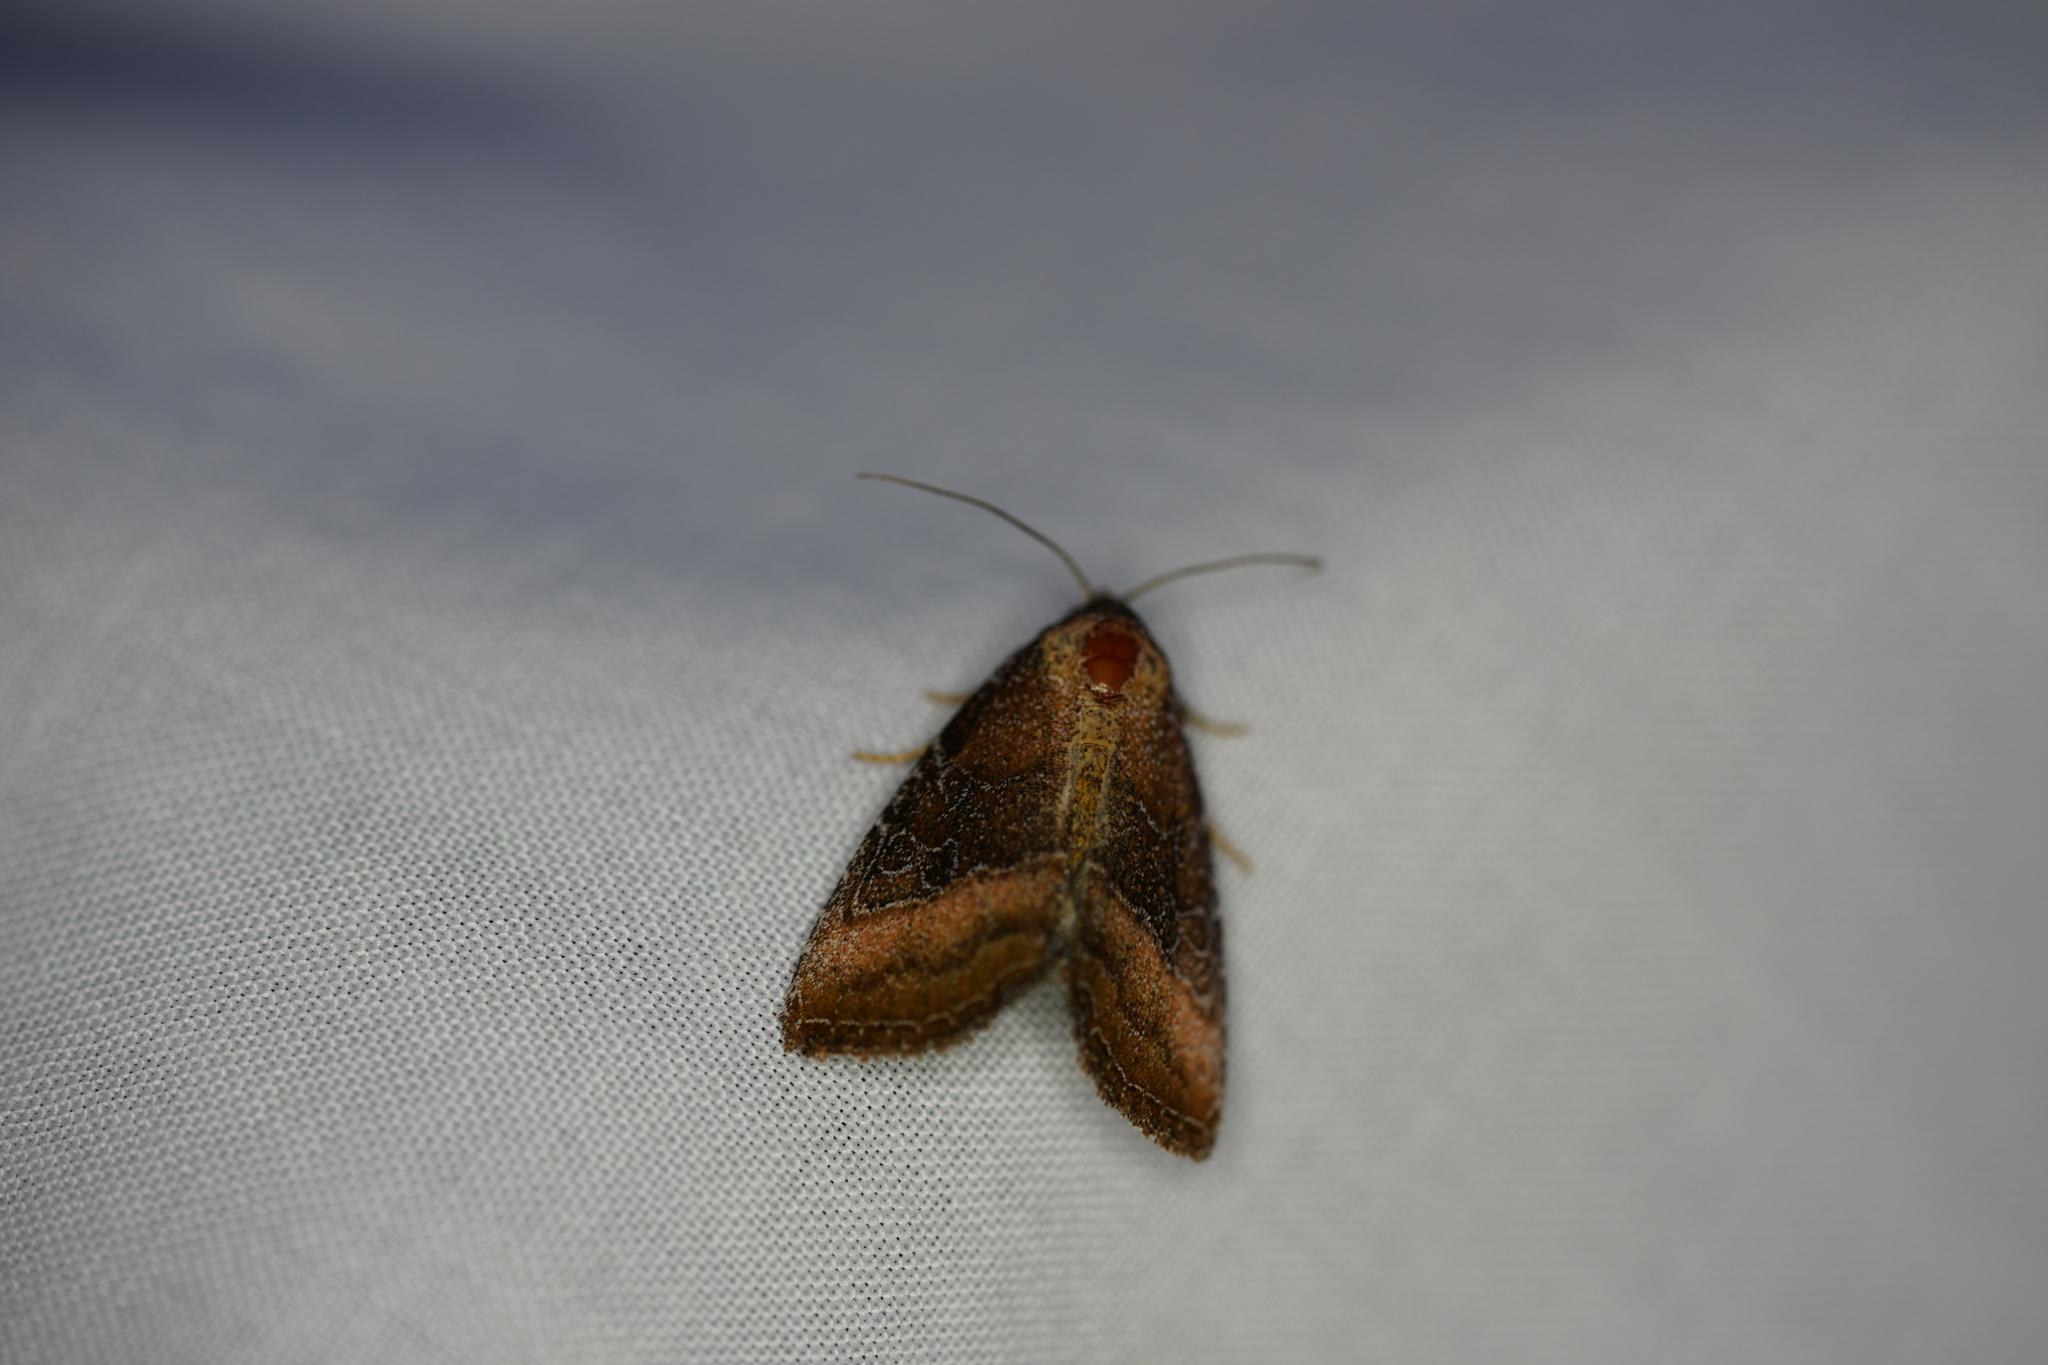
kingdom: Animalia
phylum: Arthropoda
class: Insecta
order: Lepidoptera
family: Noctuidae
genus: Ogdoconta
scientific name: Ogdoconta cinereola
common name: Common pinkband
